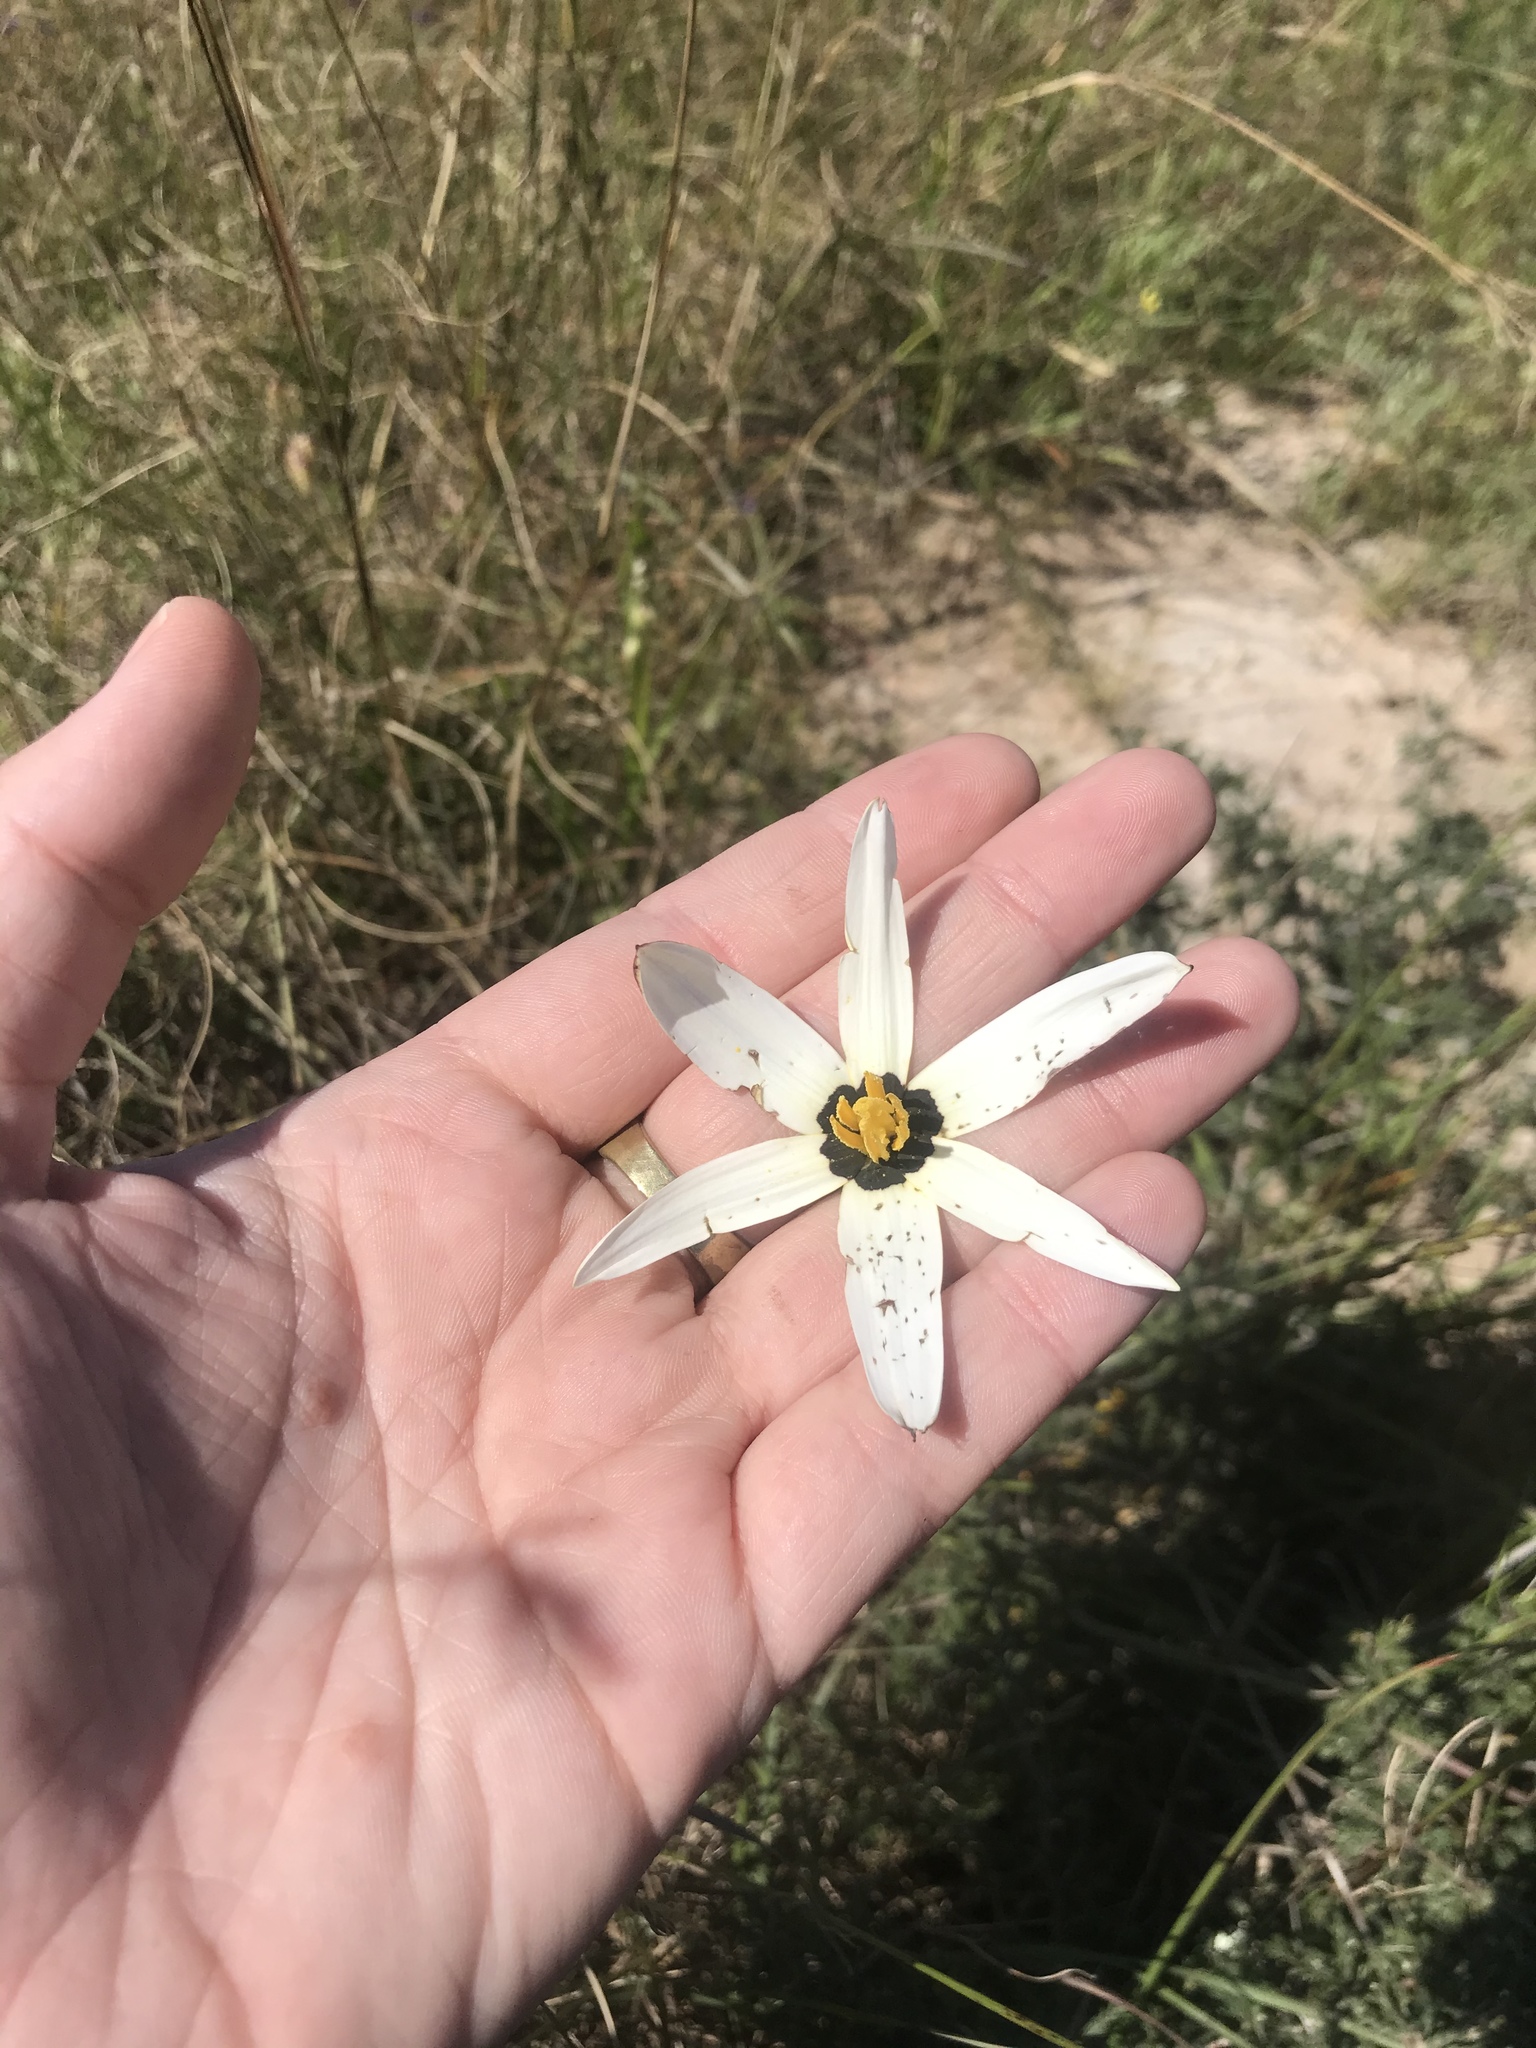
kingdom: Plantae
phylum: Tracheophyta
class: Liliopsida
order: Asparagales
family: Hypoxidaceae
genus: Pauridia
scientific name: Pauridia capensis
